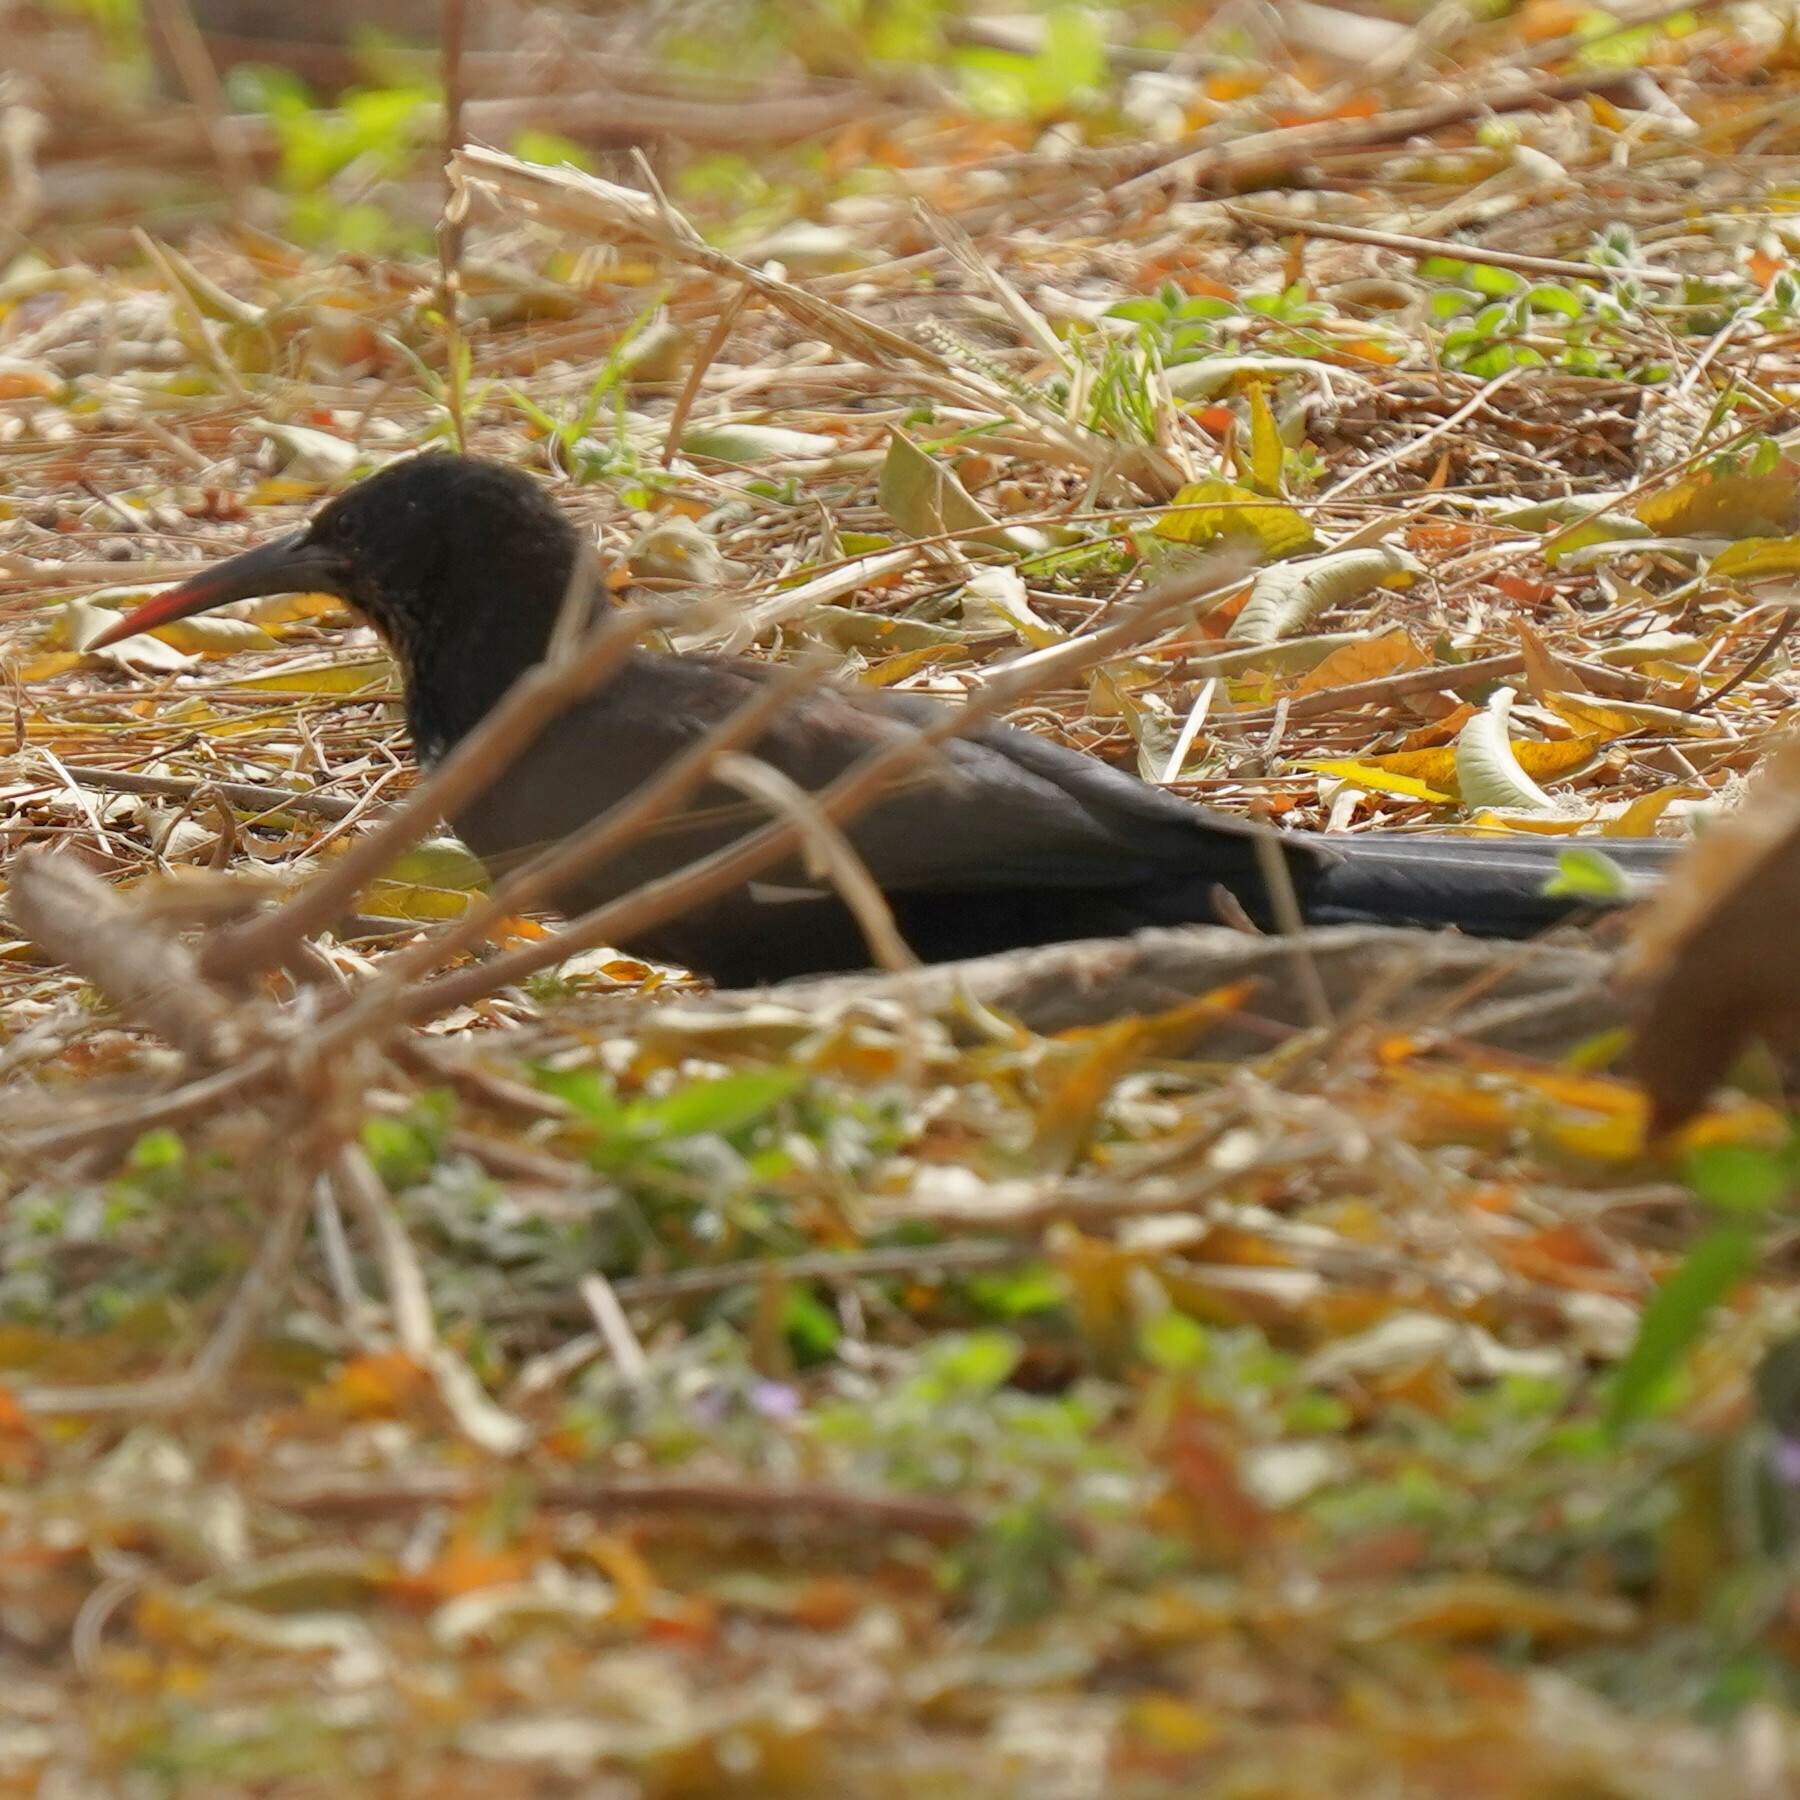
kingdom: Animalia
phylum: Chordata
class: Aves
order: Bucerotiformes
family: Phoeniculidae
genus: Phoeniculus
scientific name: Phoeniculus purpureus
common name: Green woodhoopoe
